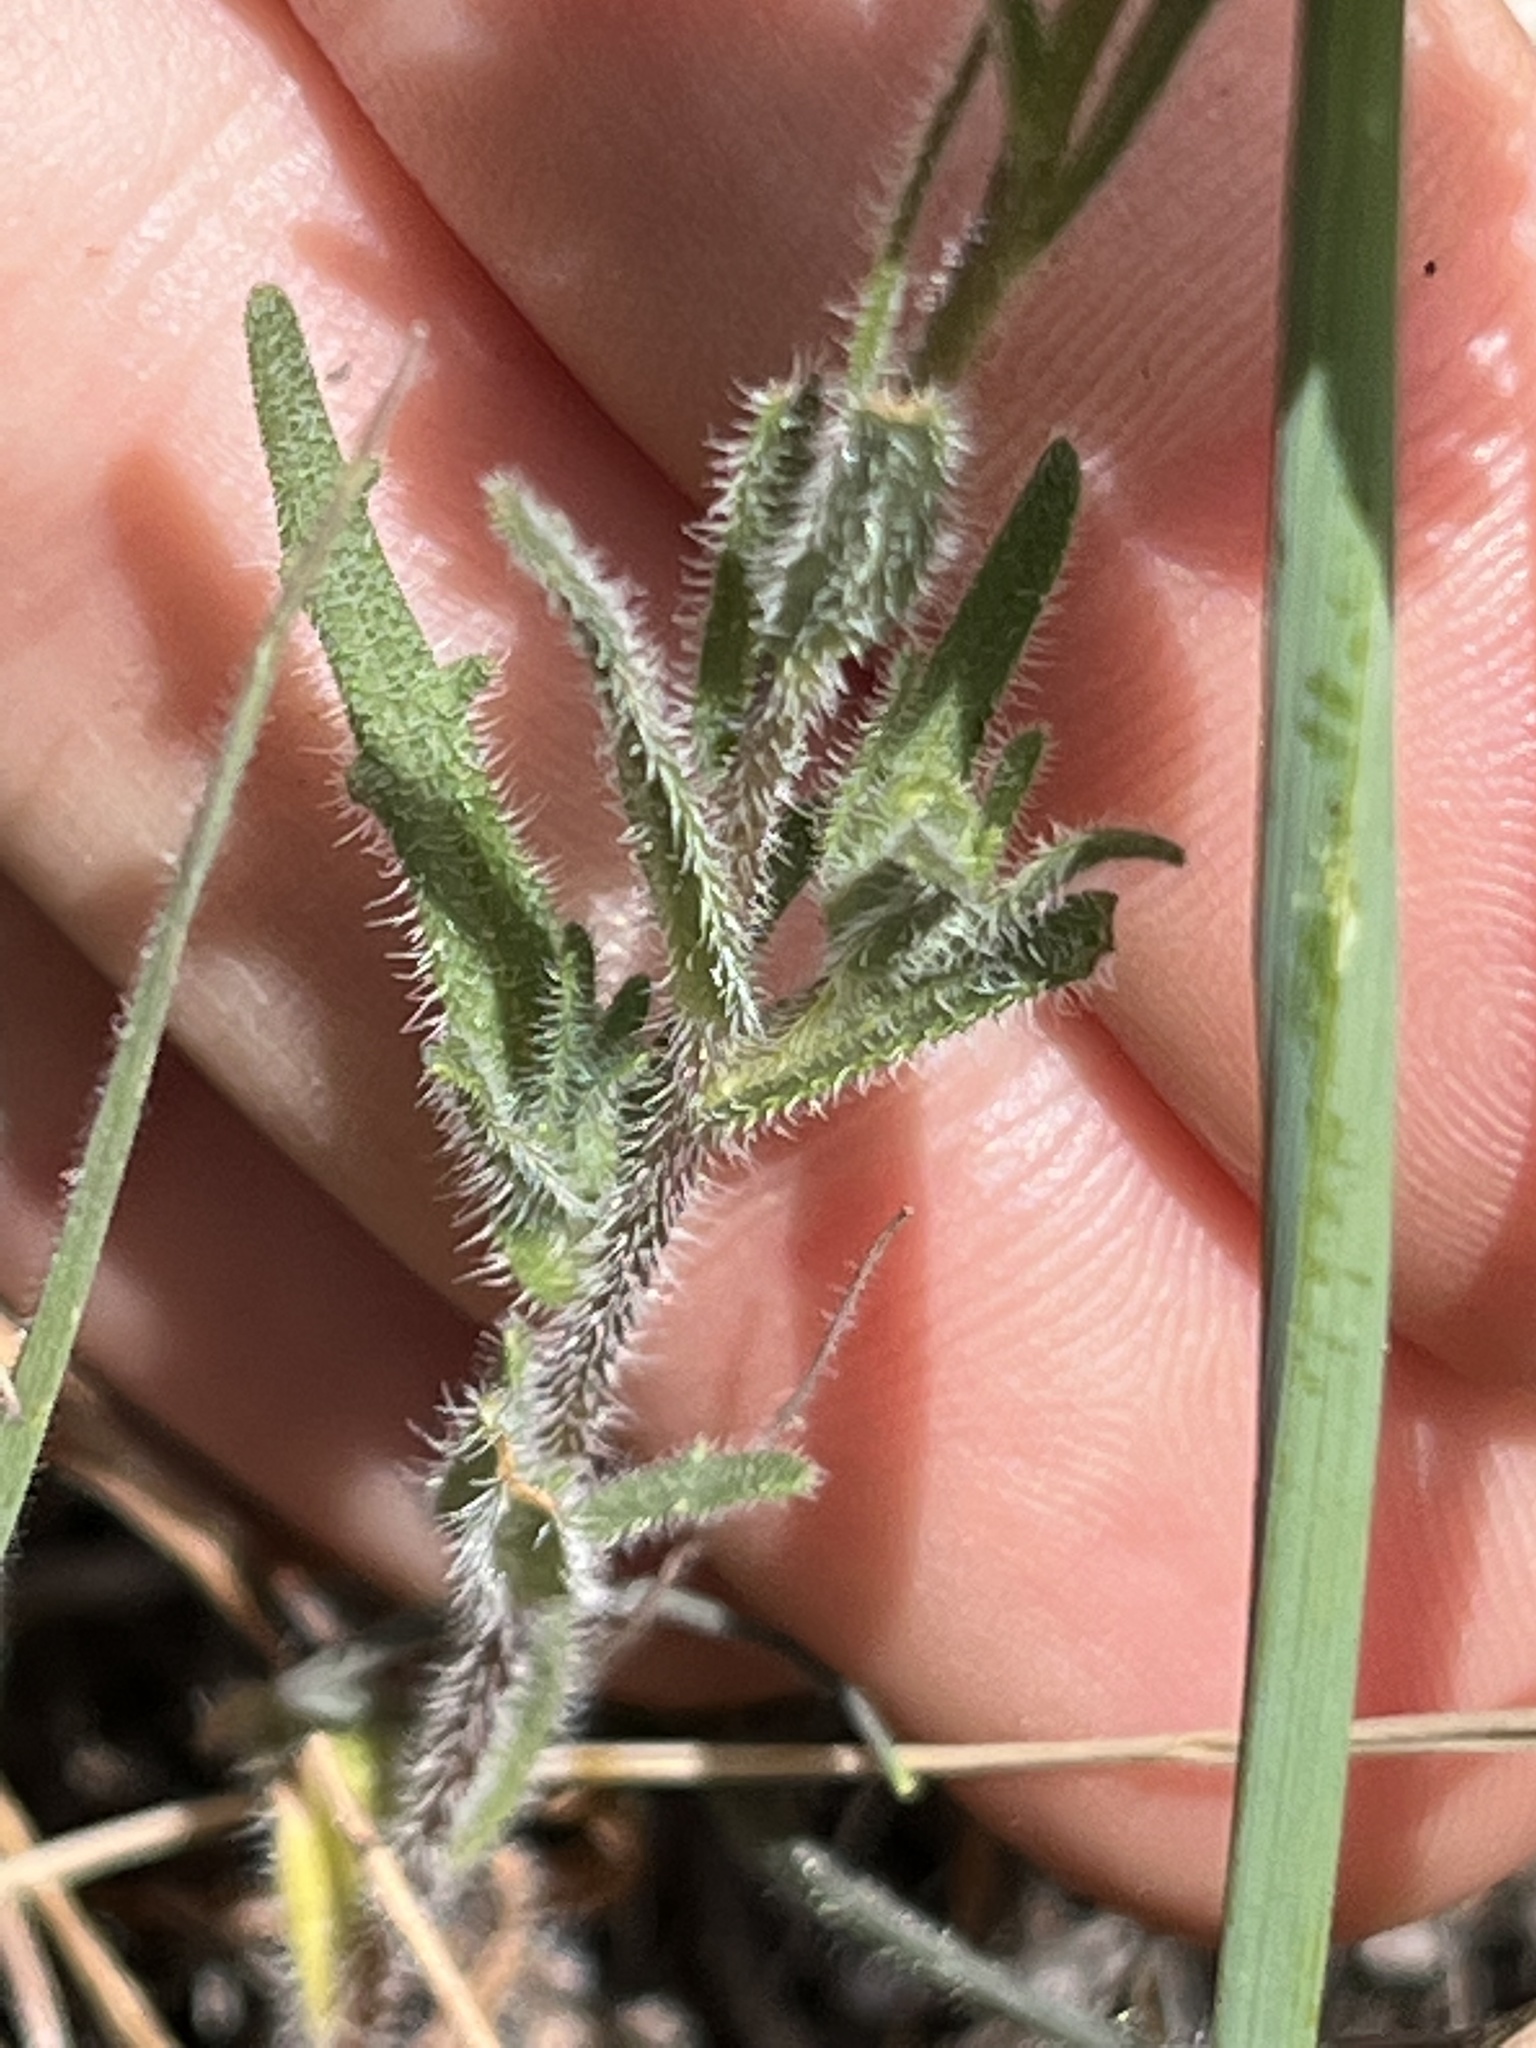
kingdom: Plantae
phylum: Tracheophyta
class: Magnoliopsida
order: Asterales
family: Asteraceae
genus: Layia
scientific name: Layia glandulosa
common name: White layia
